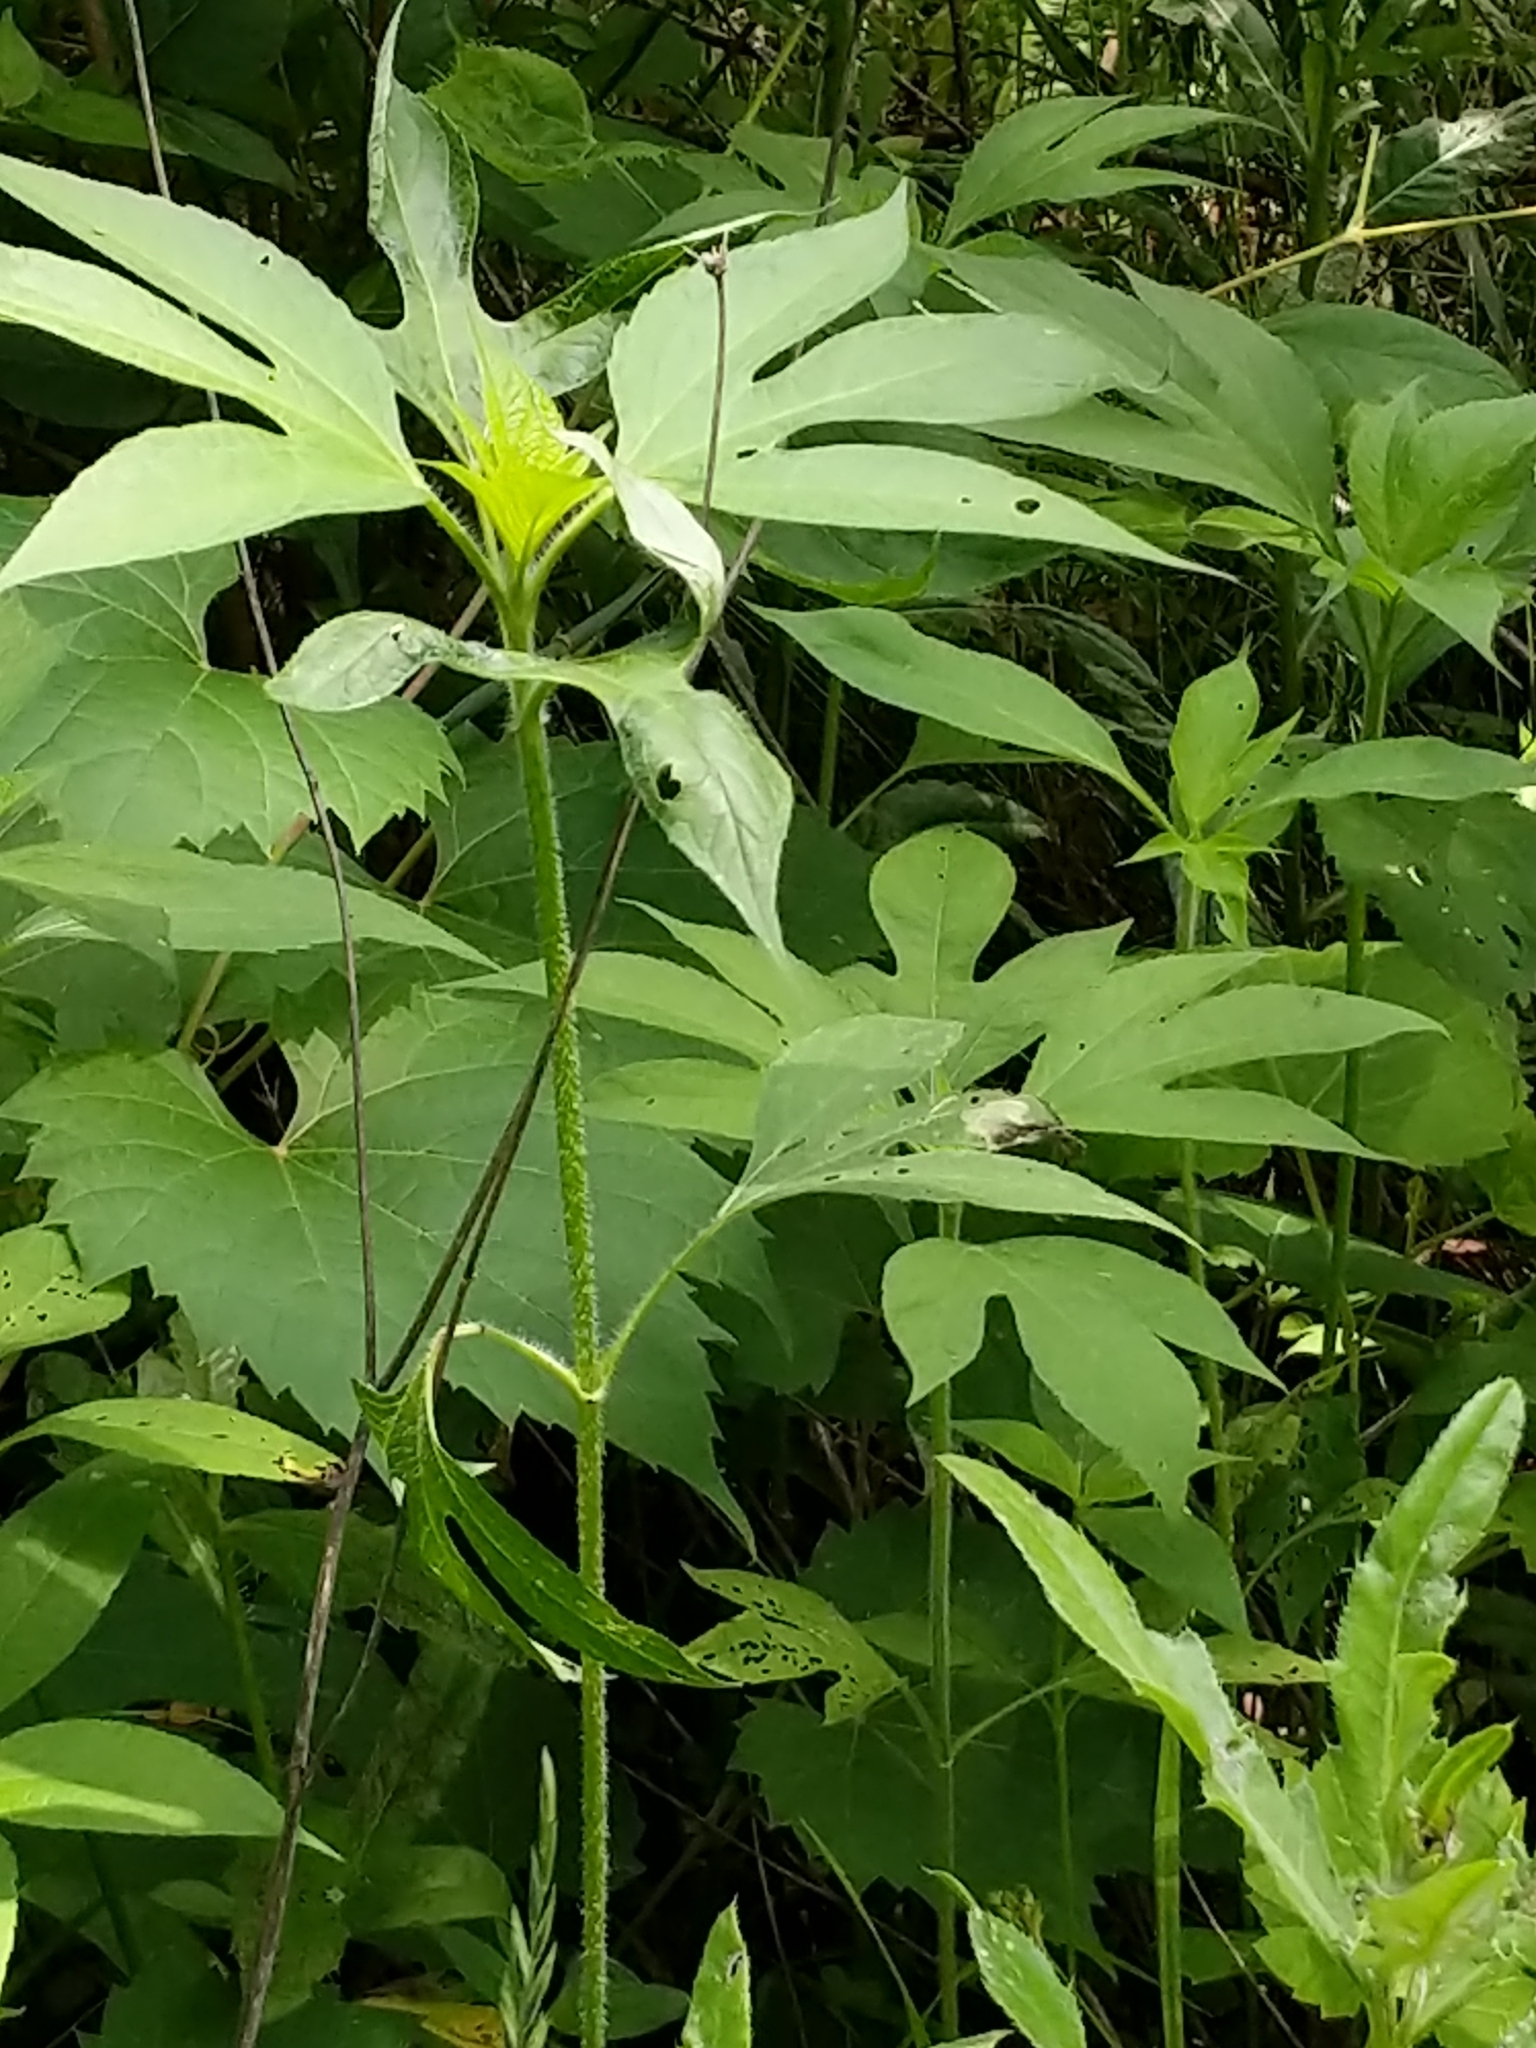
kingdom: Plantae
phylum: Tracheophyta
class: Magnoliopsida
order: Asterales
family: Asteraceae
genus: Ambrosia
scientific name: Ambrosia trifida
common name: Giant ragweed
